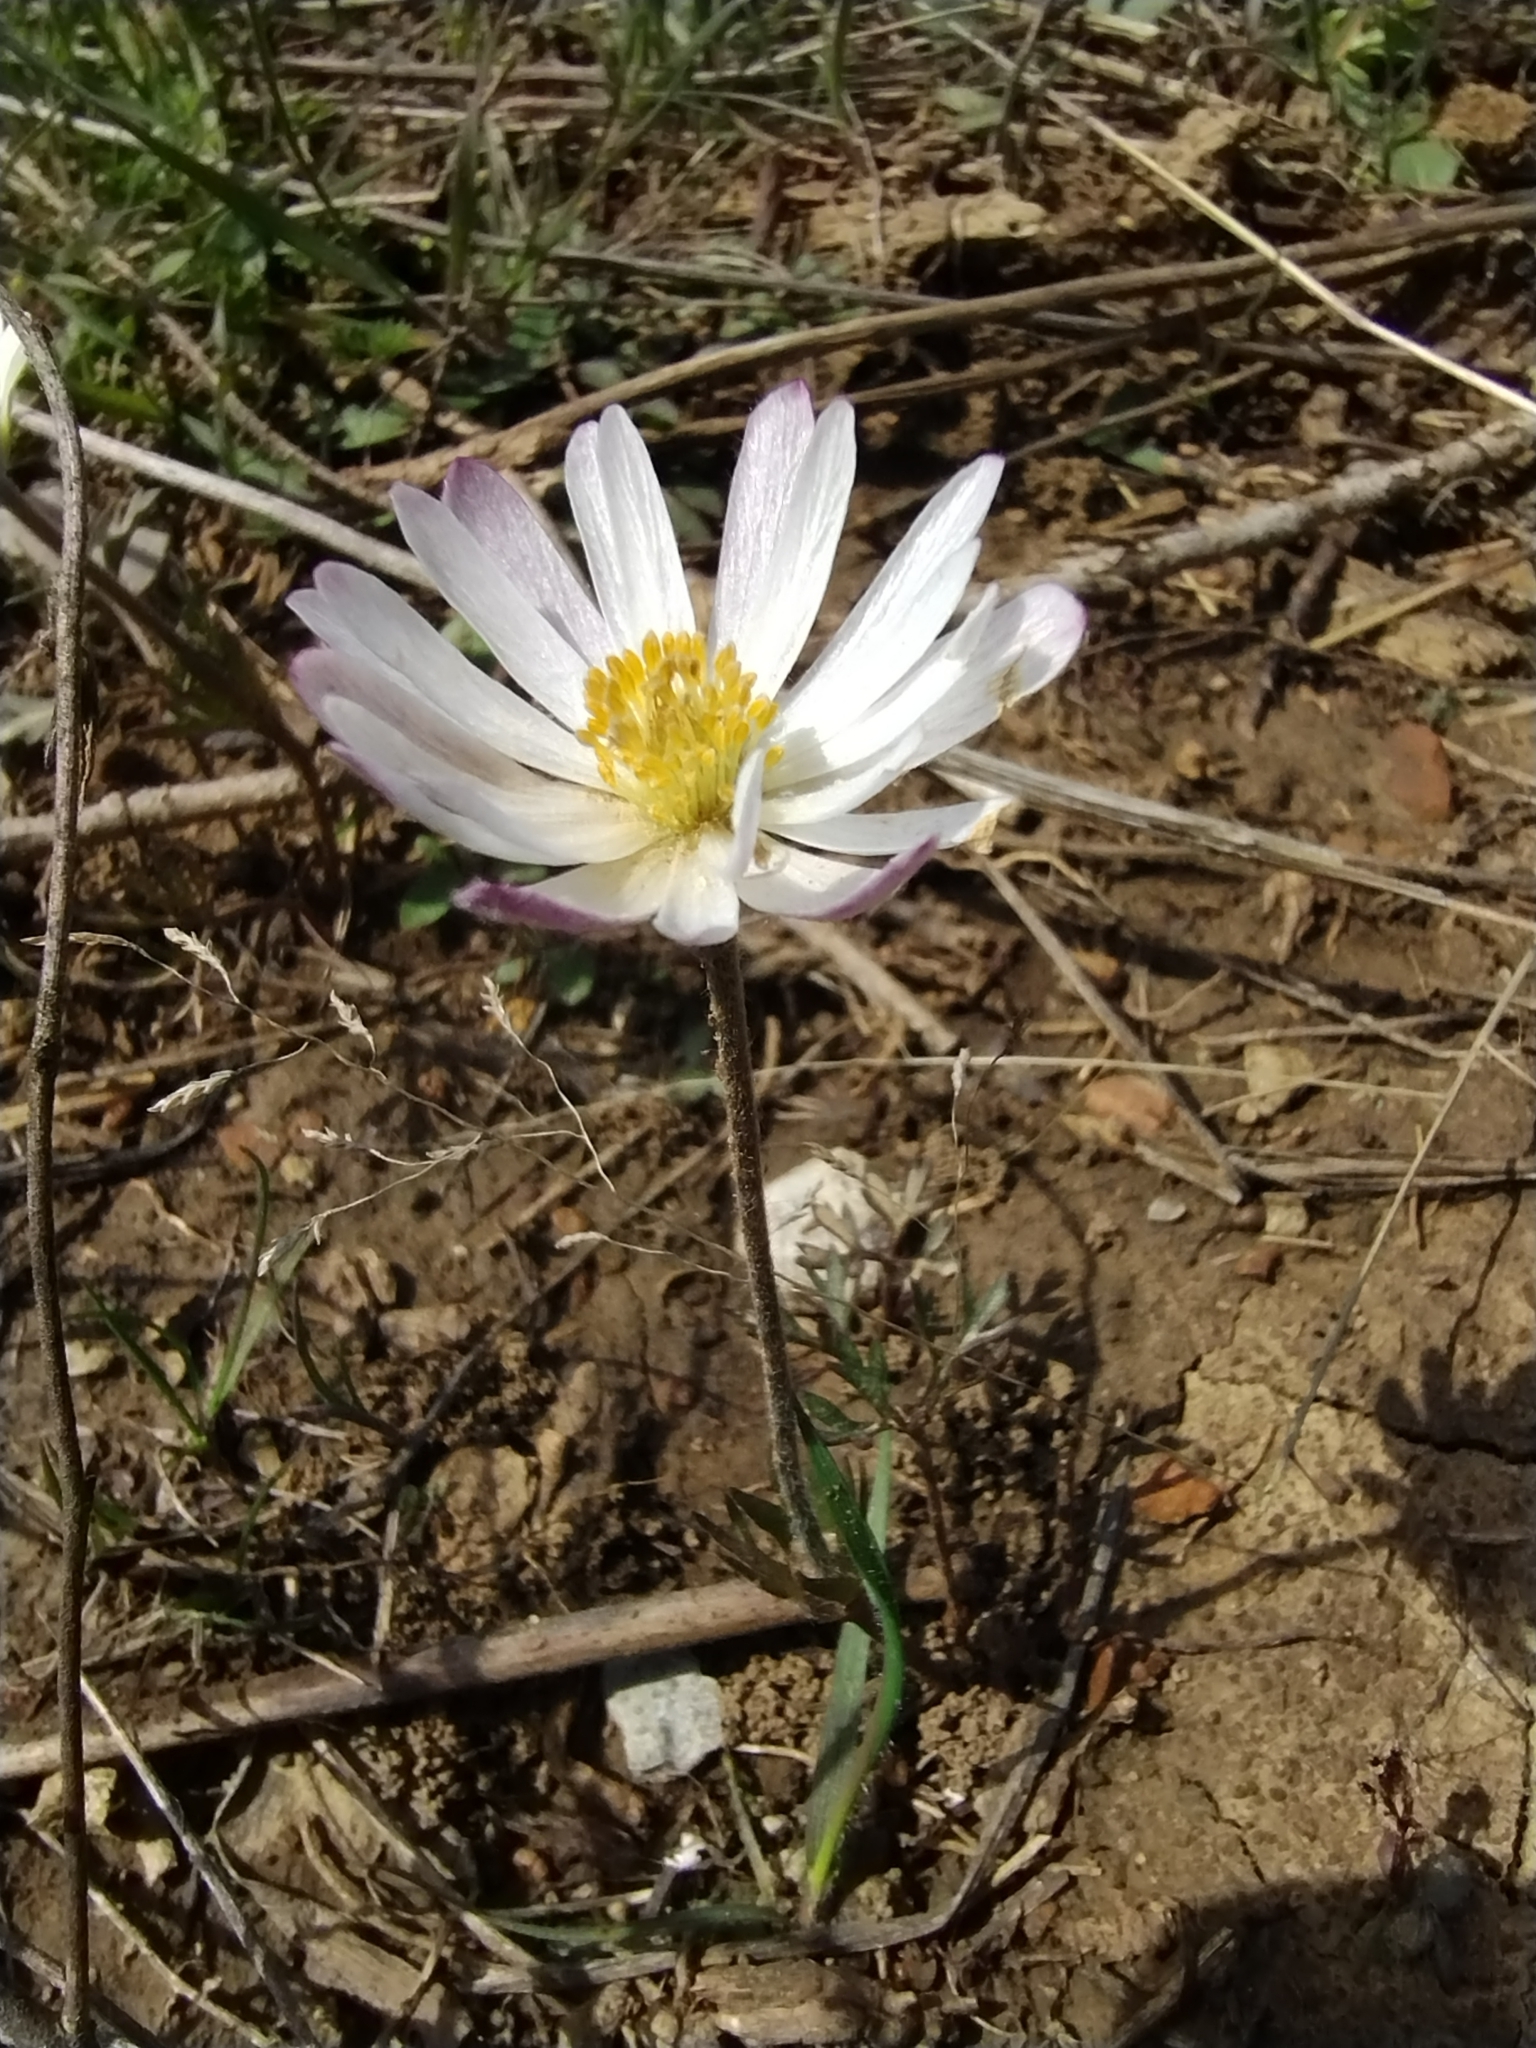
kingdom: Plantae
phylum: Tracheophyta
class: Magnoliopsida
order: Ranunculales
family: Ranunculaceae
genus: Anemone
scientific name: Anemone caroliniana
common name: Carolina anemone
